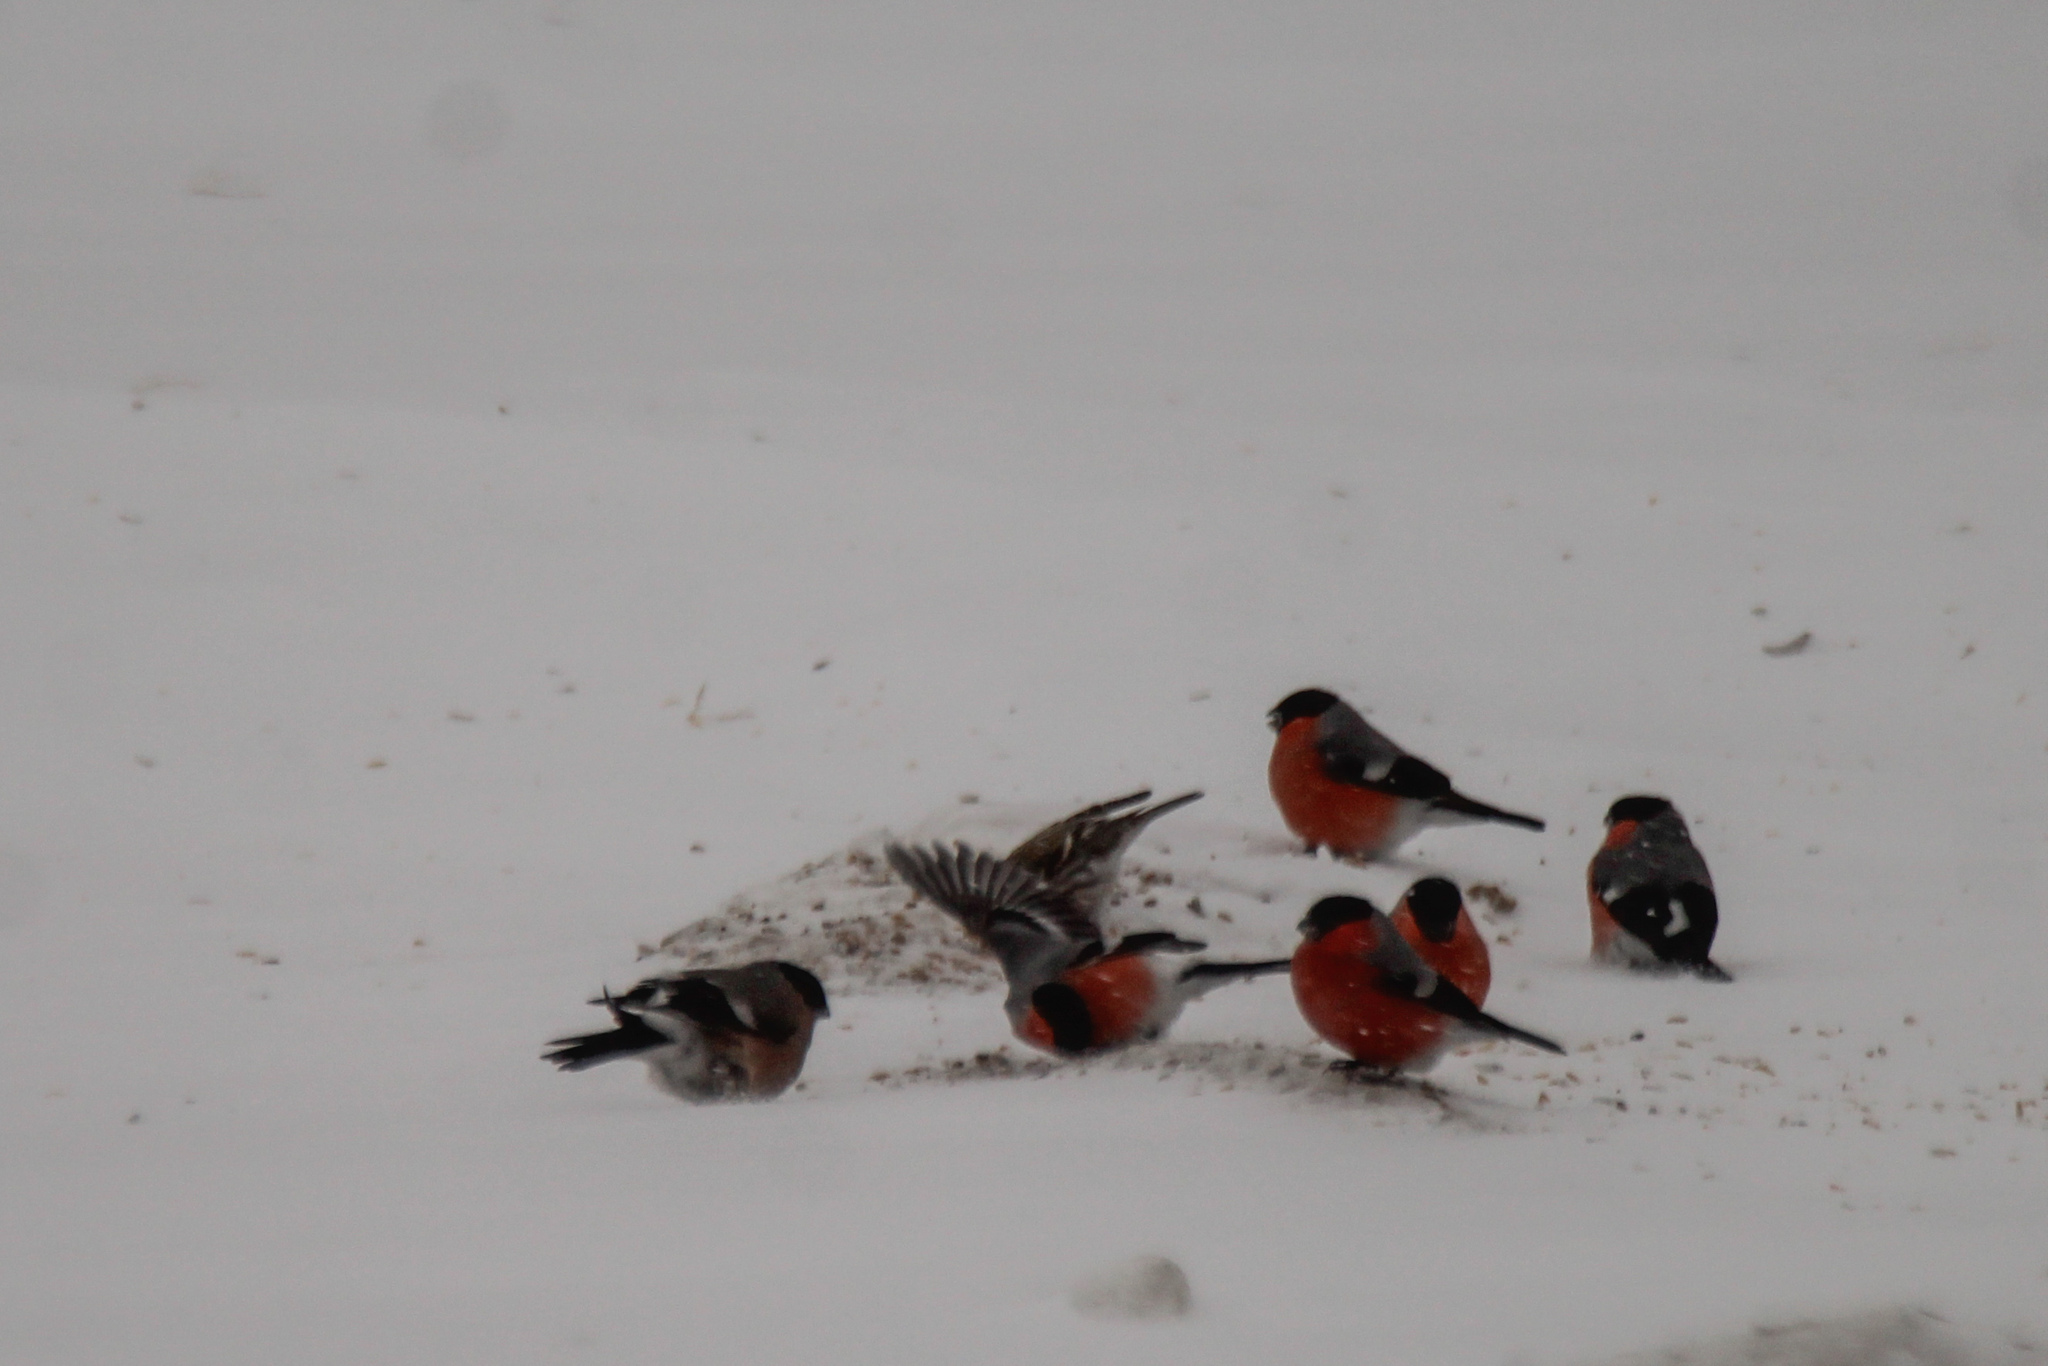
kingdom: Animalia
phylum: Chordata
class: Aves
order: Passeriformes
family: Fringillidae
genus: Pyrrhula
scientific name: Pyrrhula pyrrhula
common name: Eurasian bullfinch
